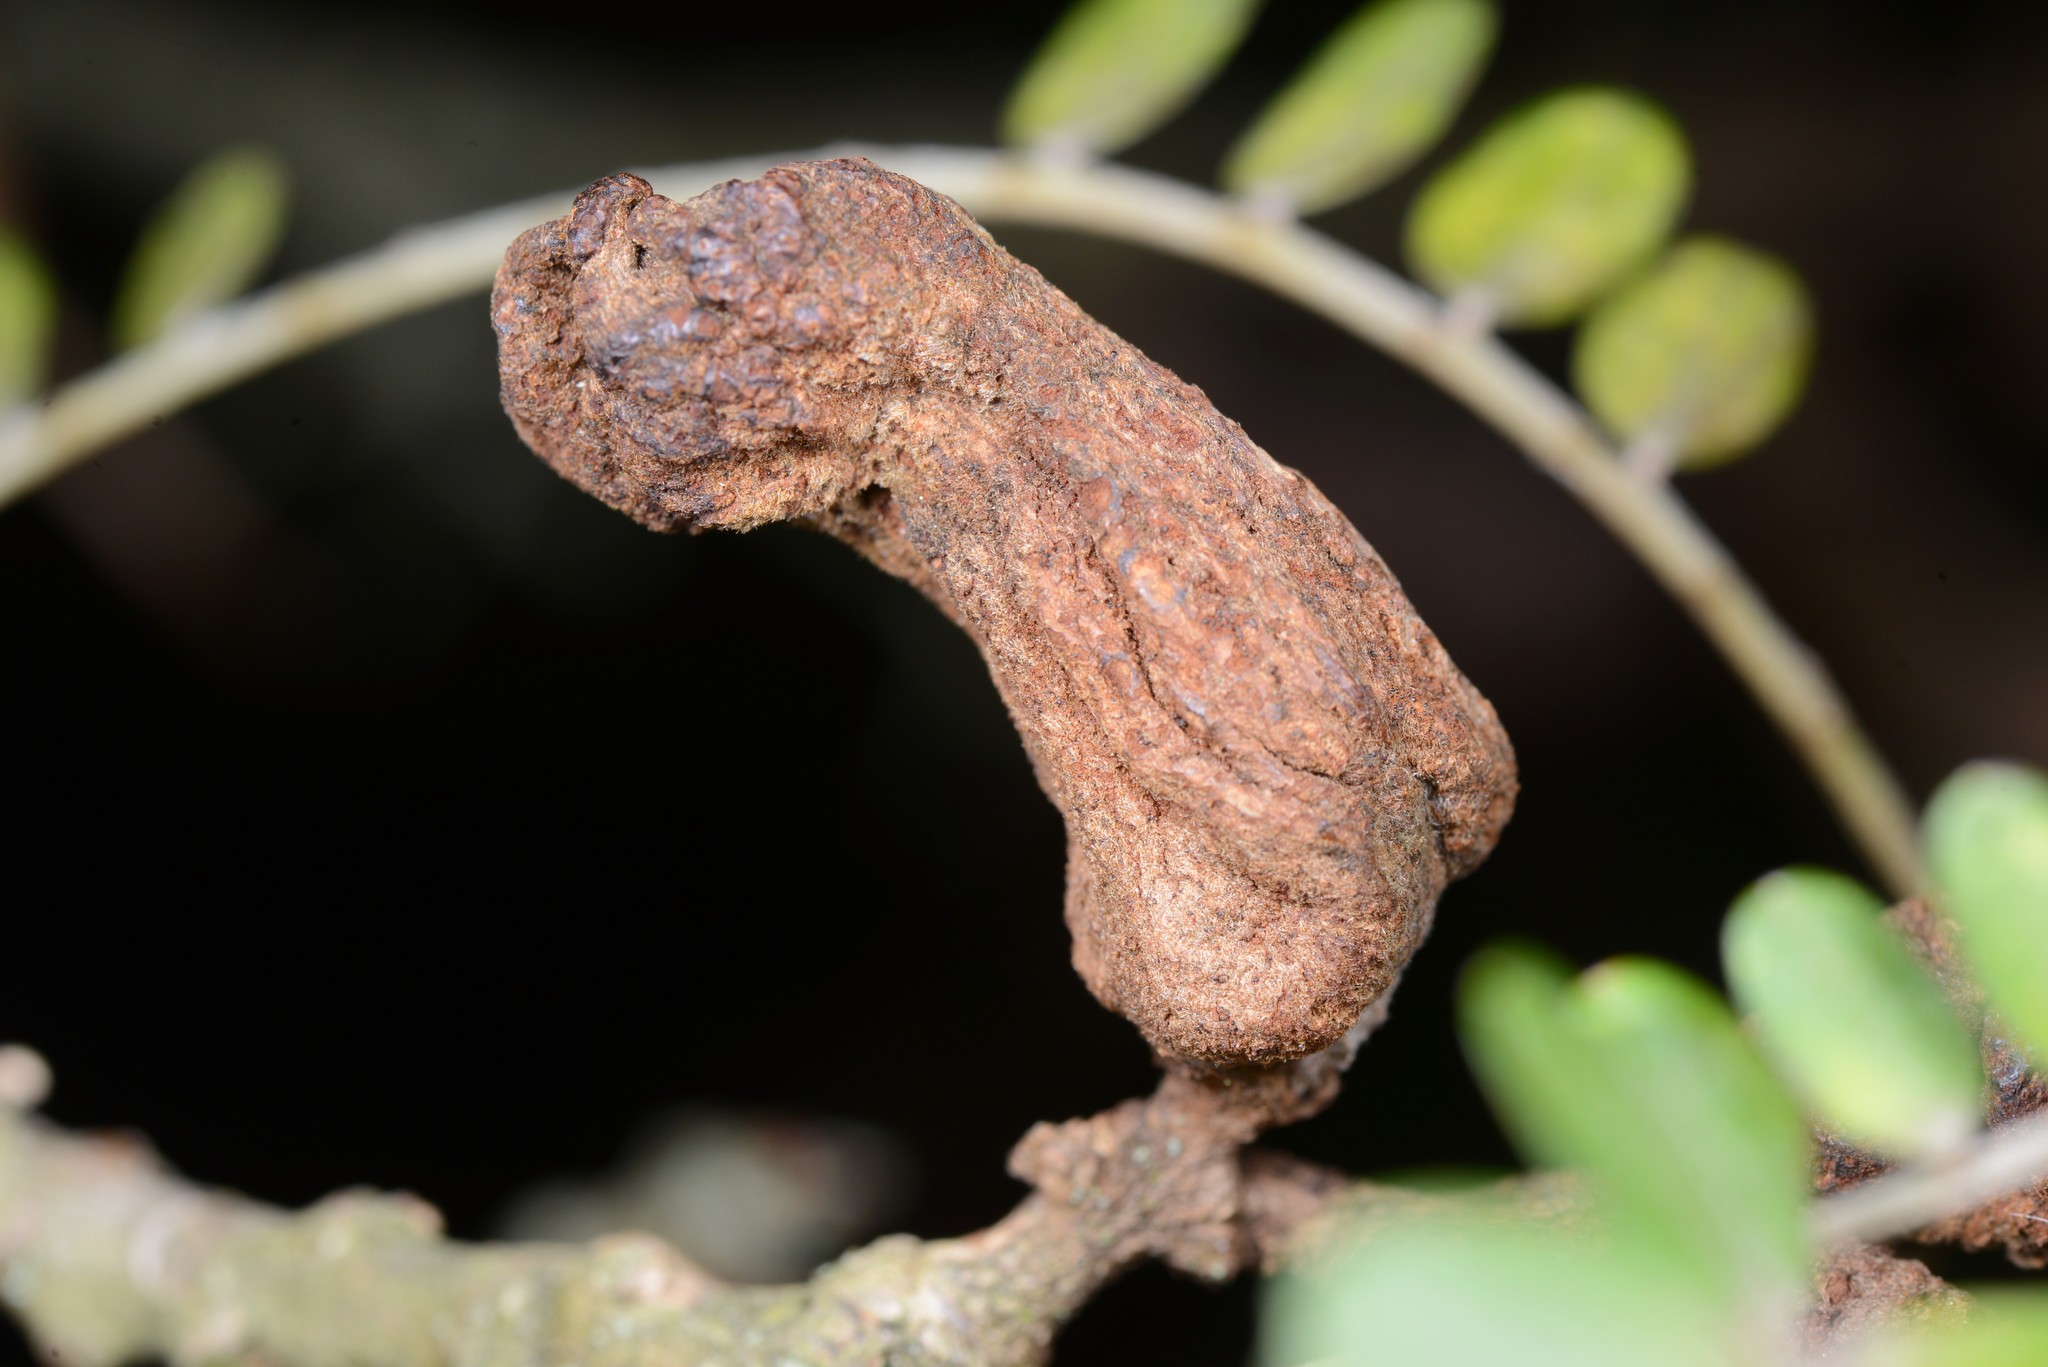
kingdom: Fungi
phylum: Basidiomycota
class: Pucciniomycetes
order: Pucciniales
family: Pucciniaceae
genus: Uromyces
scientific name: Uromyces edwardsiae
